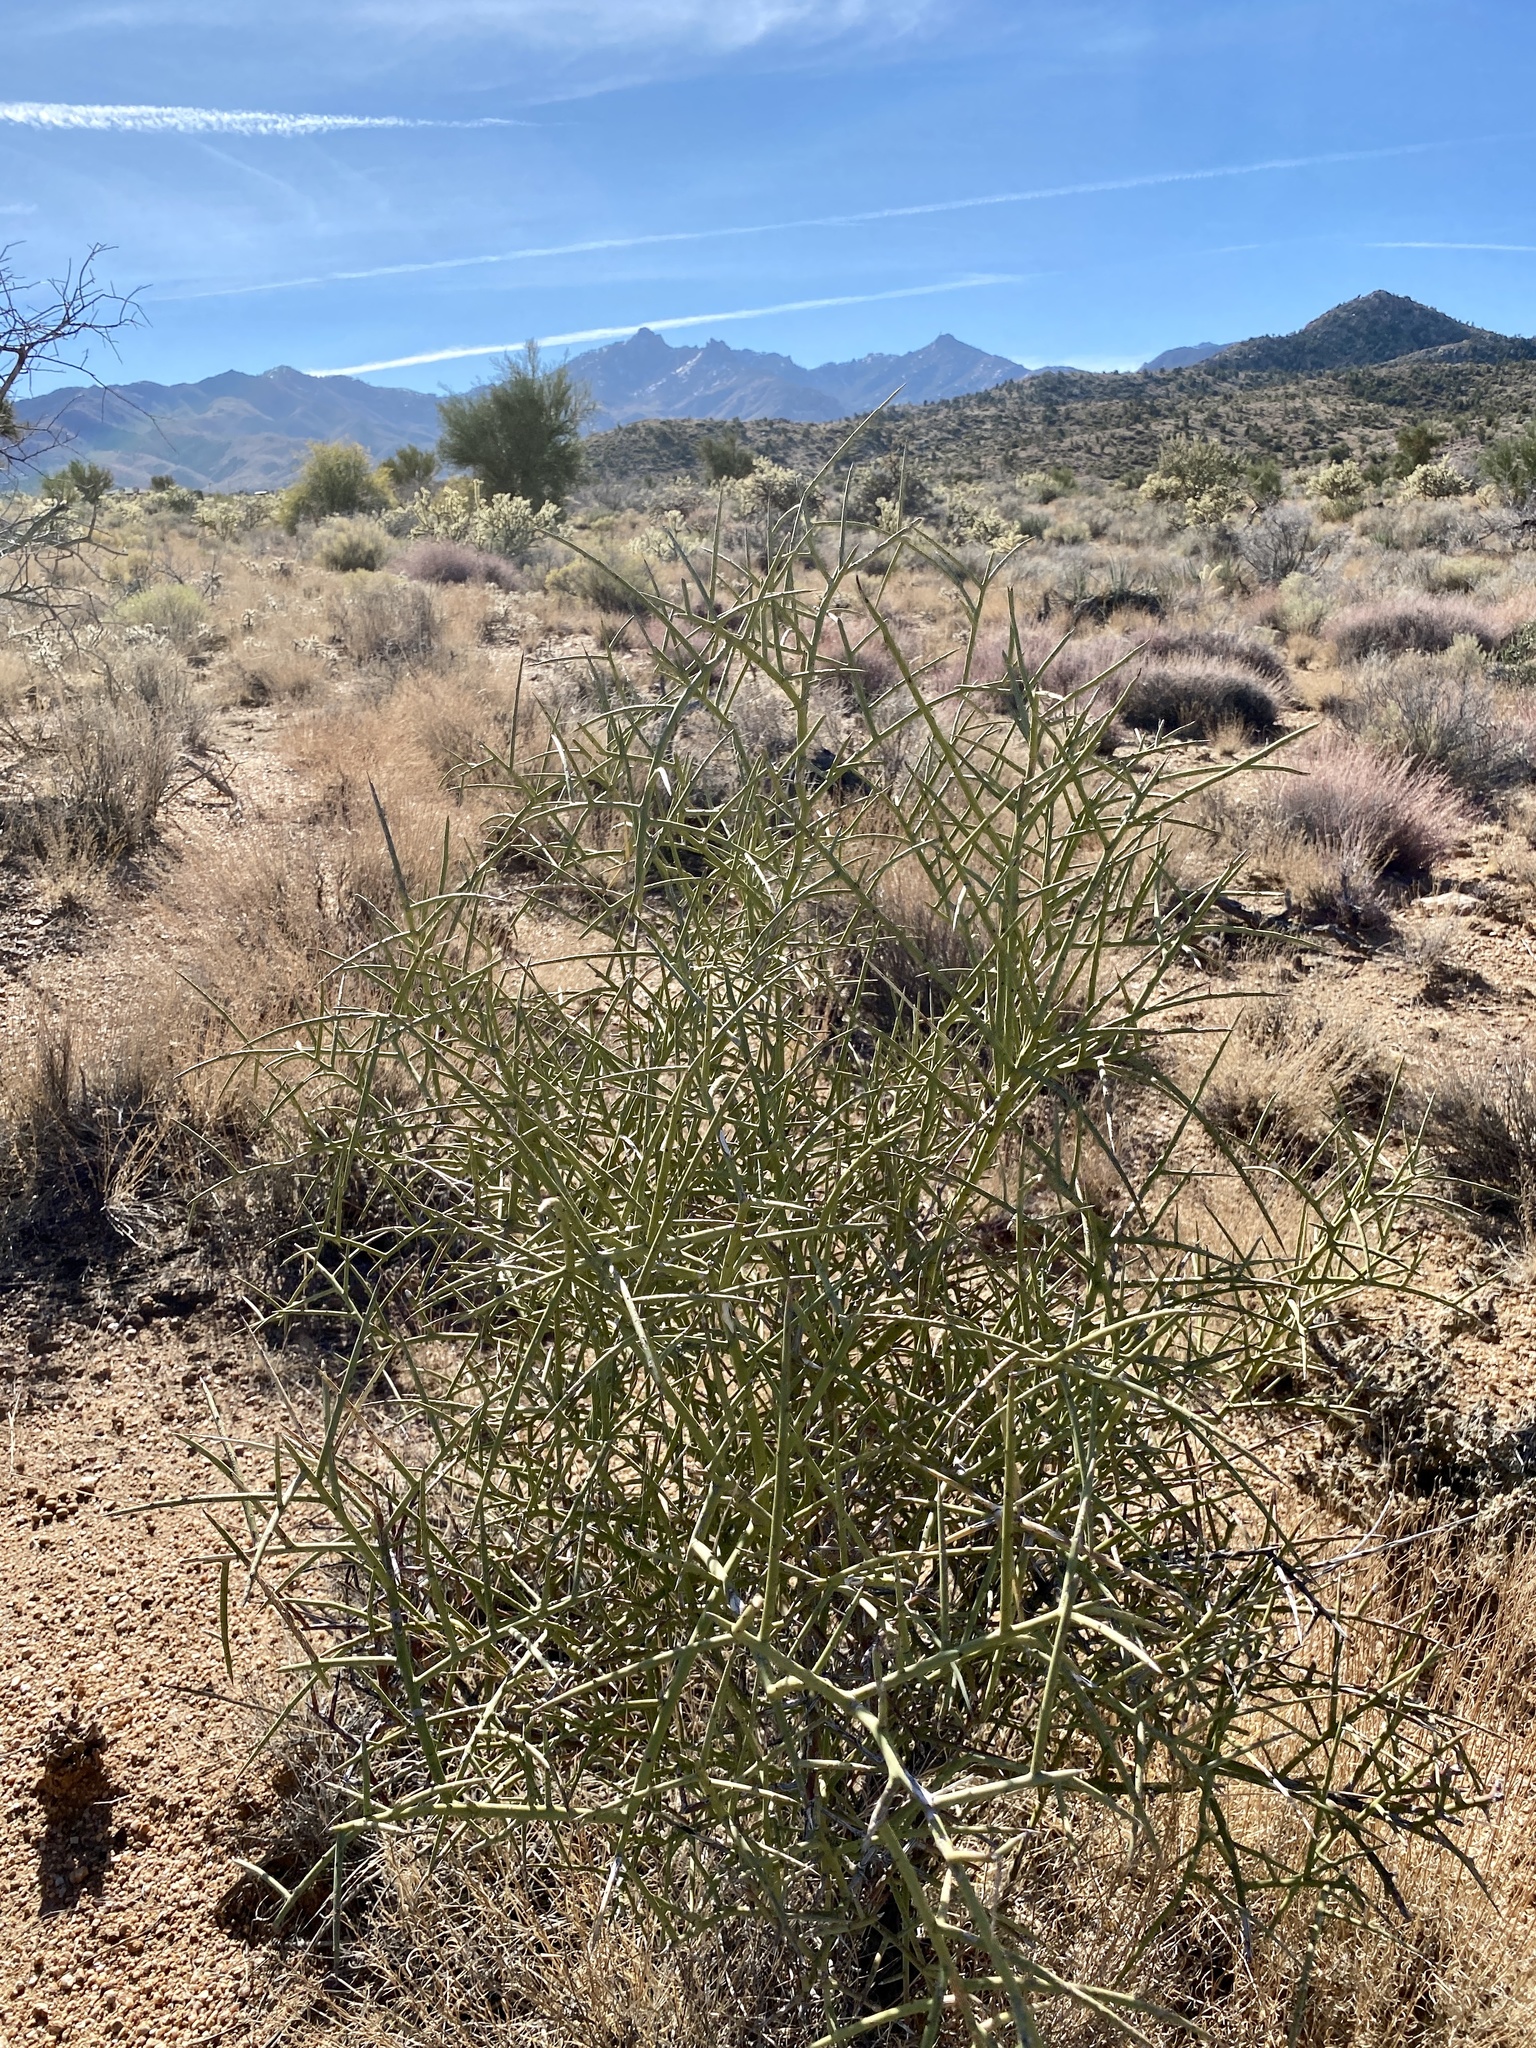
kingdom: Plantae
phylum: Tracheophyta
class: Magnoliopsida
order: Celastrales
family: Celastraceae
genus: Canotia
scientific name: Canotia holacantha
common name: Crucifixion thorns
